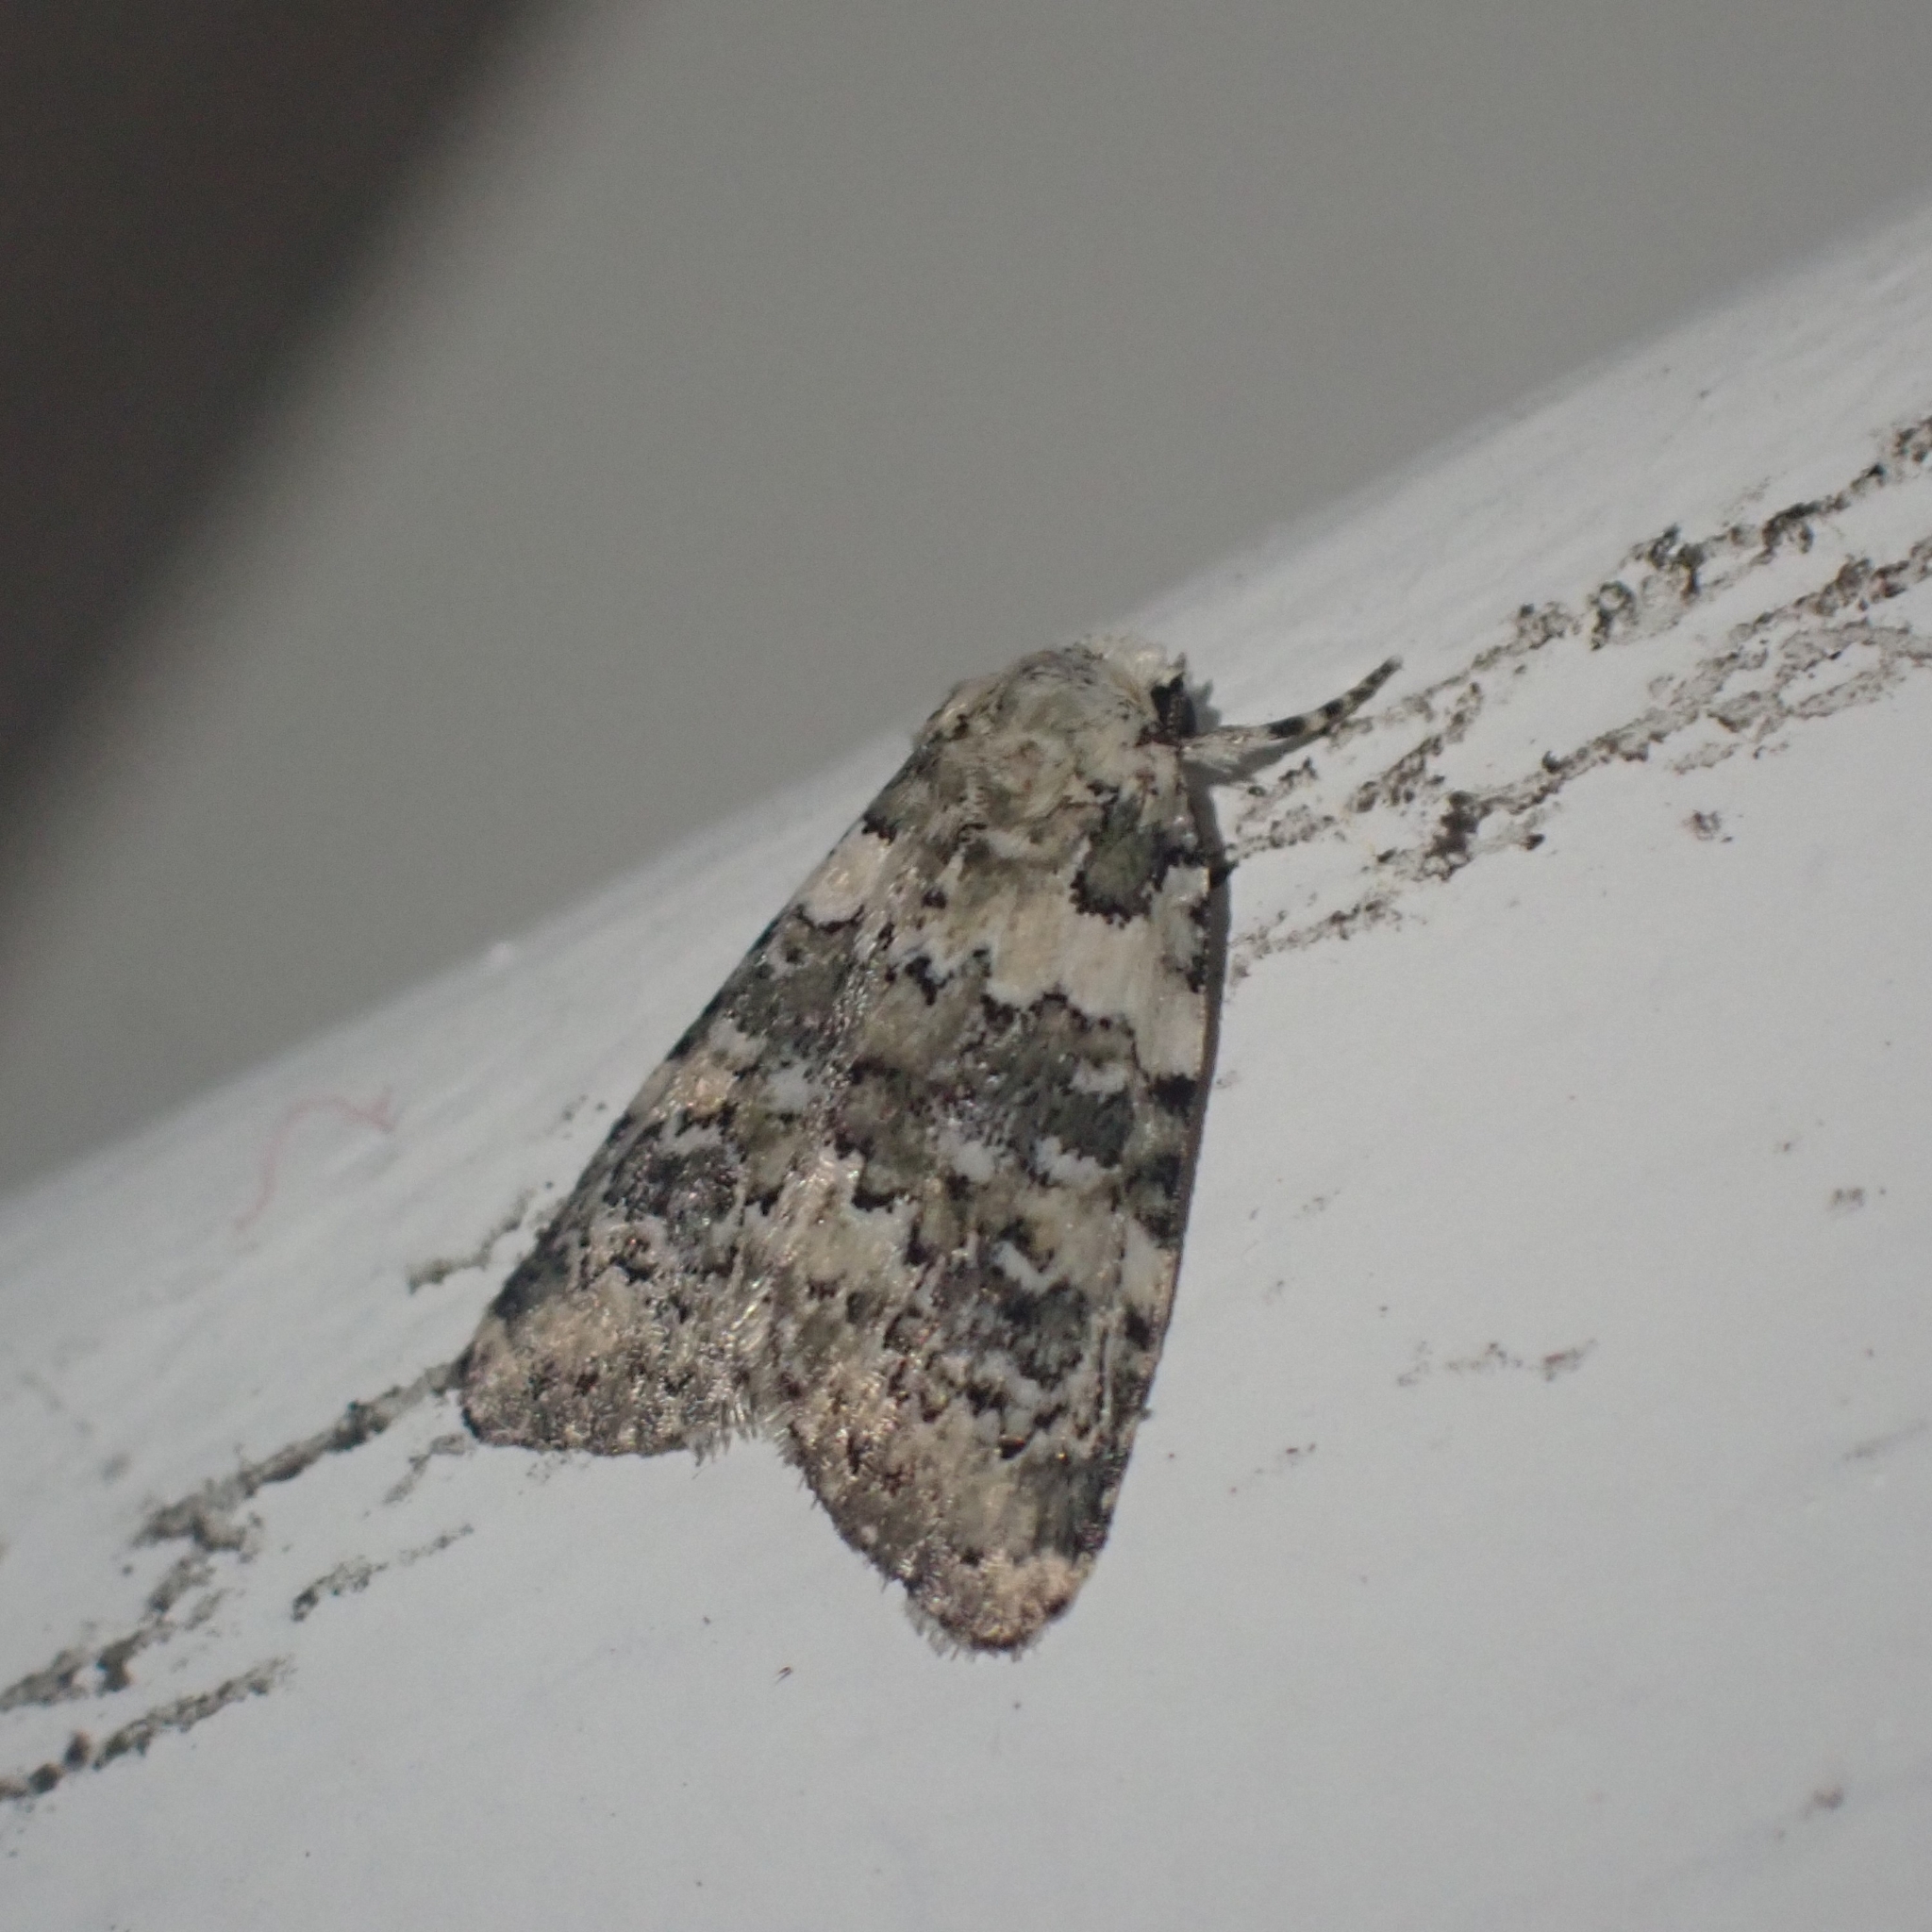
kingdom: Animalia
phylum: Arthropoda
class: Insecta
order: Lepidoptera
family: Noctuidae
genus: Bryophila
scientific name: Bryophila domestica
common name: Marbled beauty
